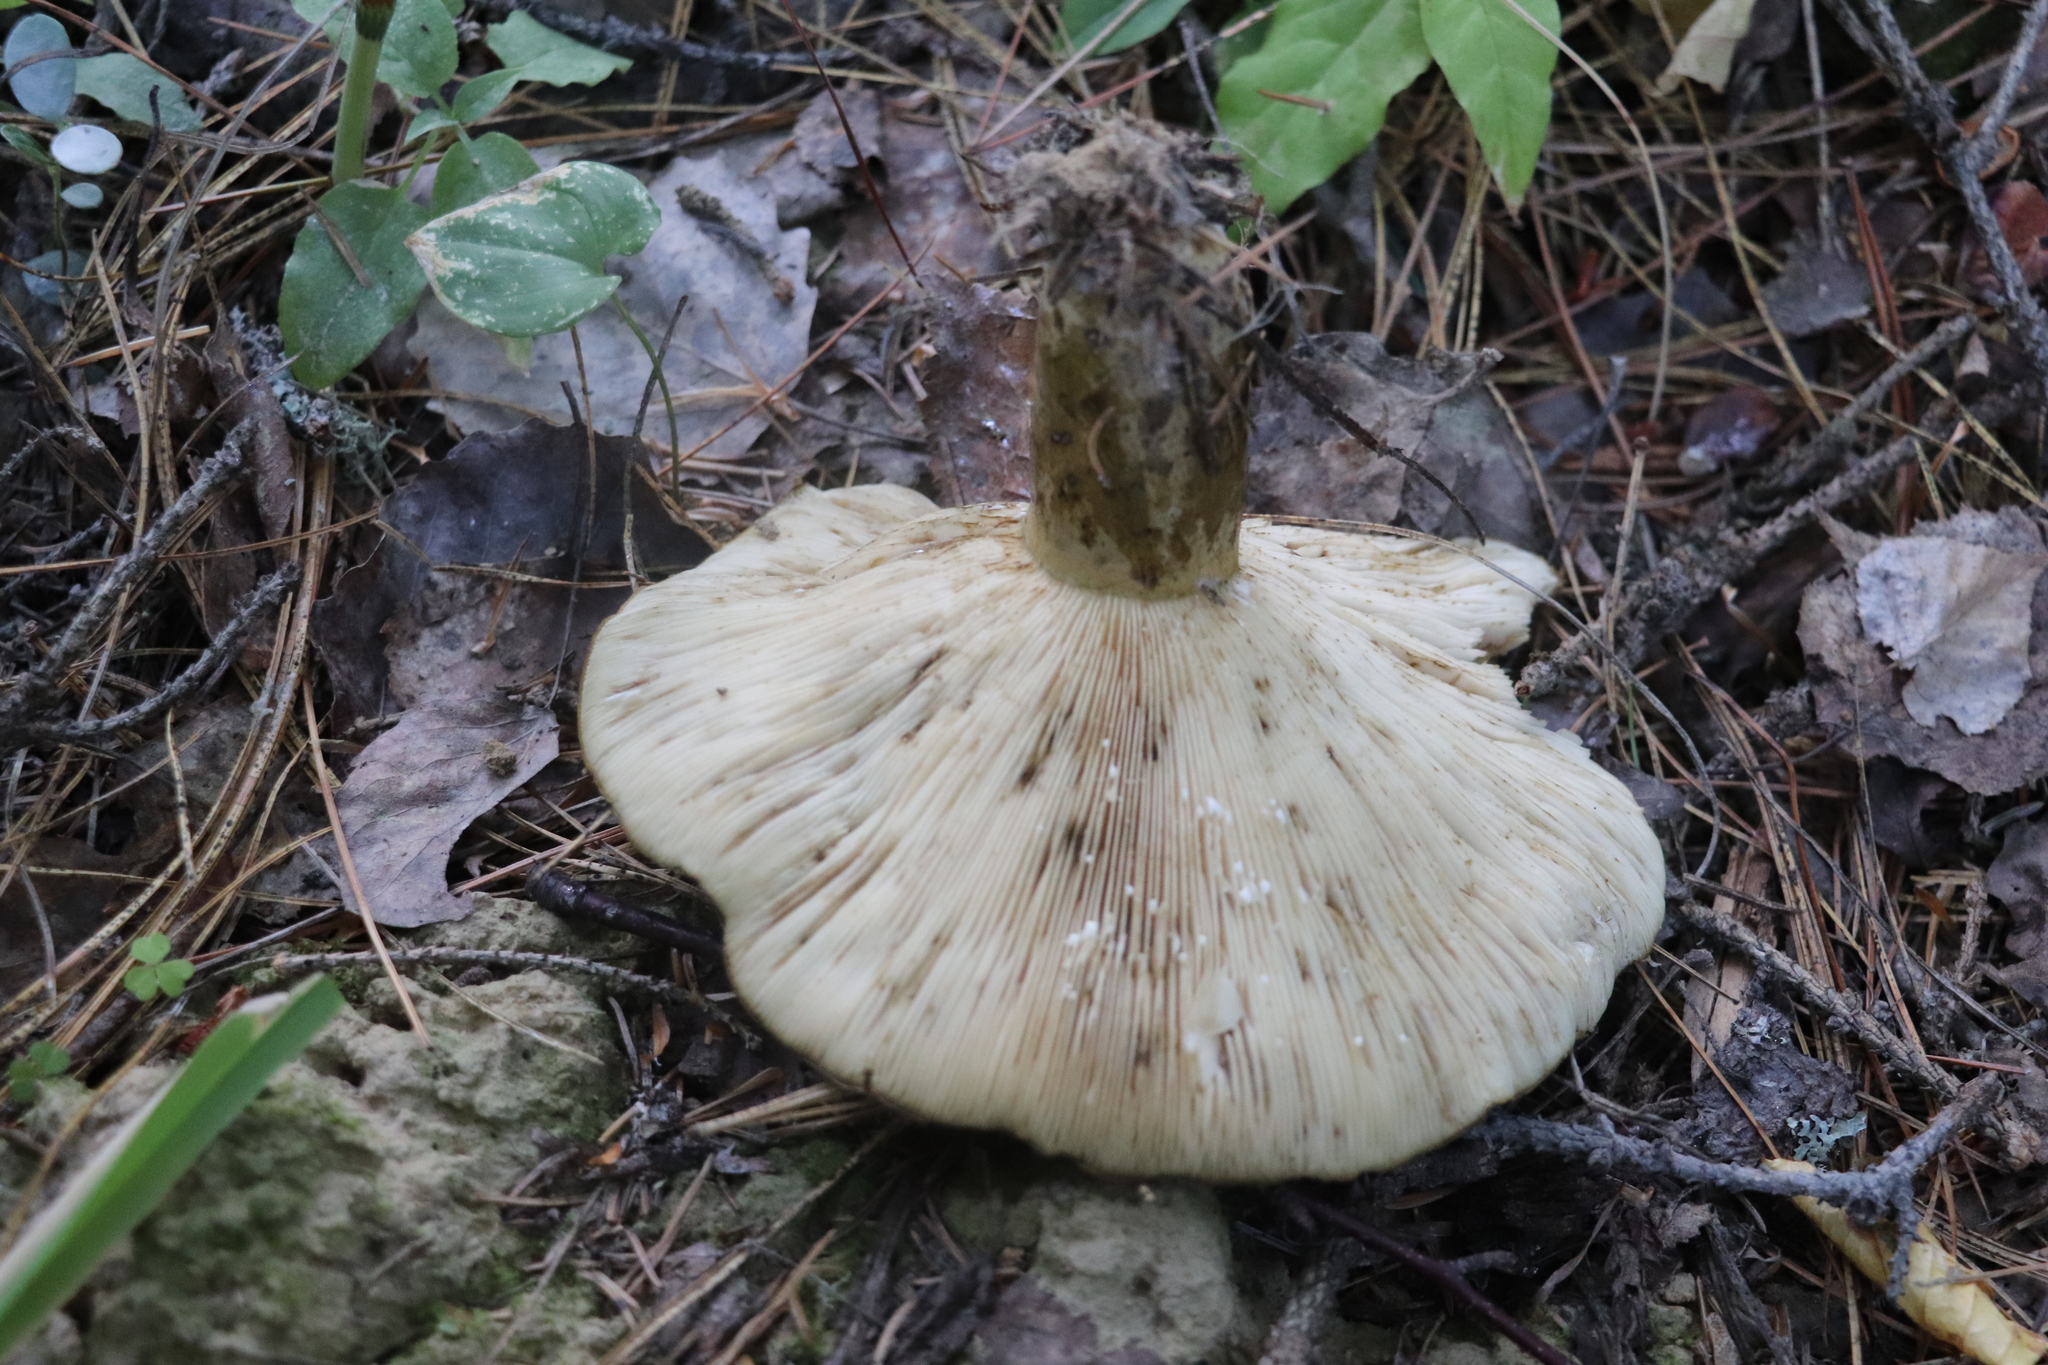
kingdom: Fungi
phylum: Basidiomycota
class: Agaricomycetes
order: Russulales
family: Russulaceae
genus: Lactarius
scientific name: Lactarius turpis
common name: Ugly milk-cap
